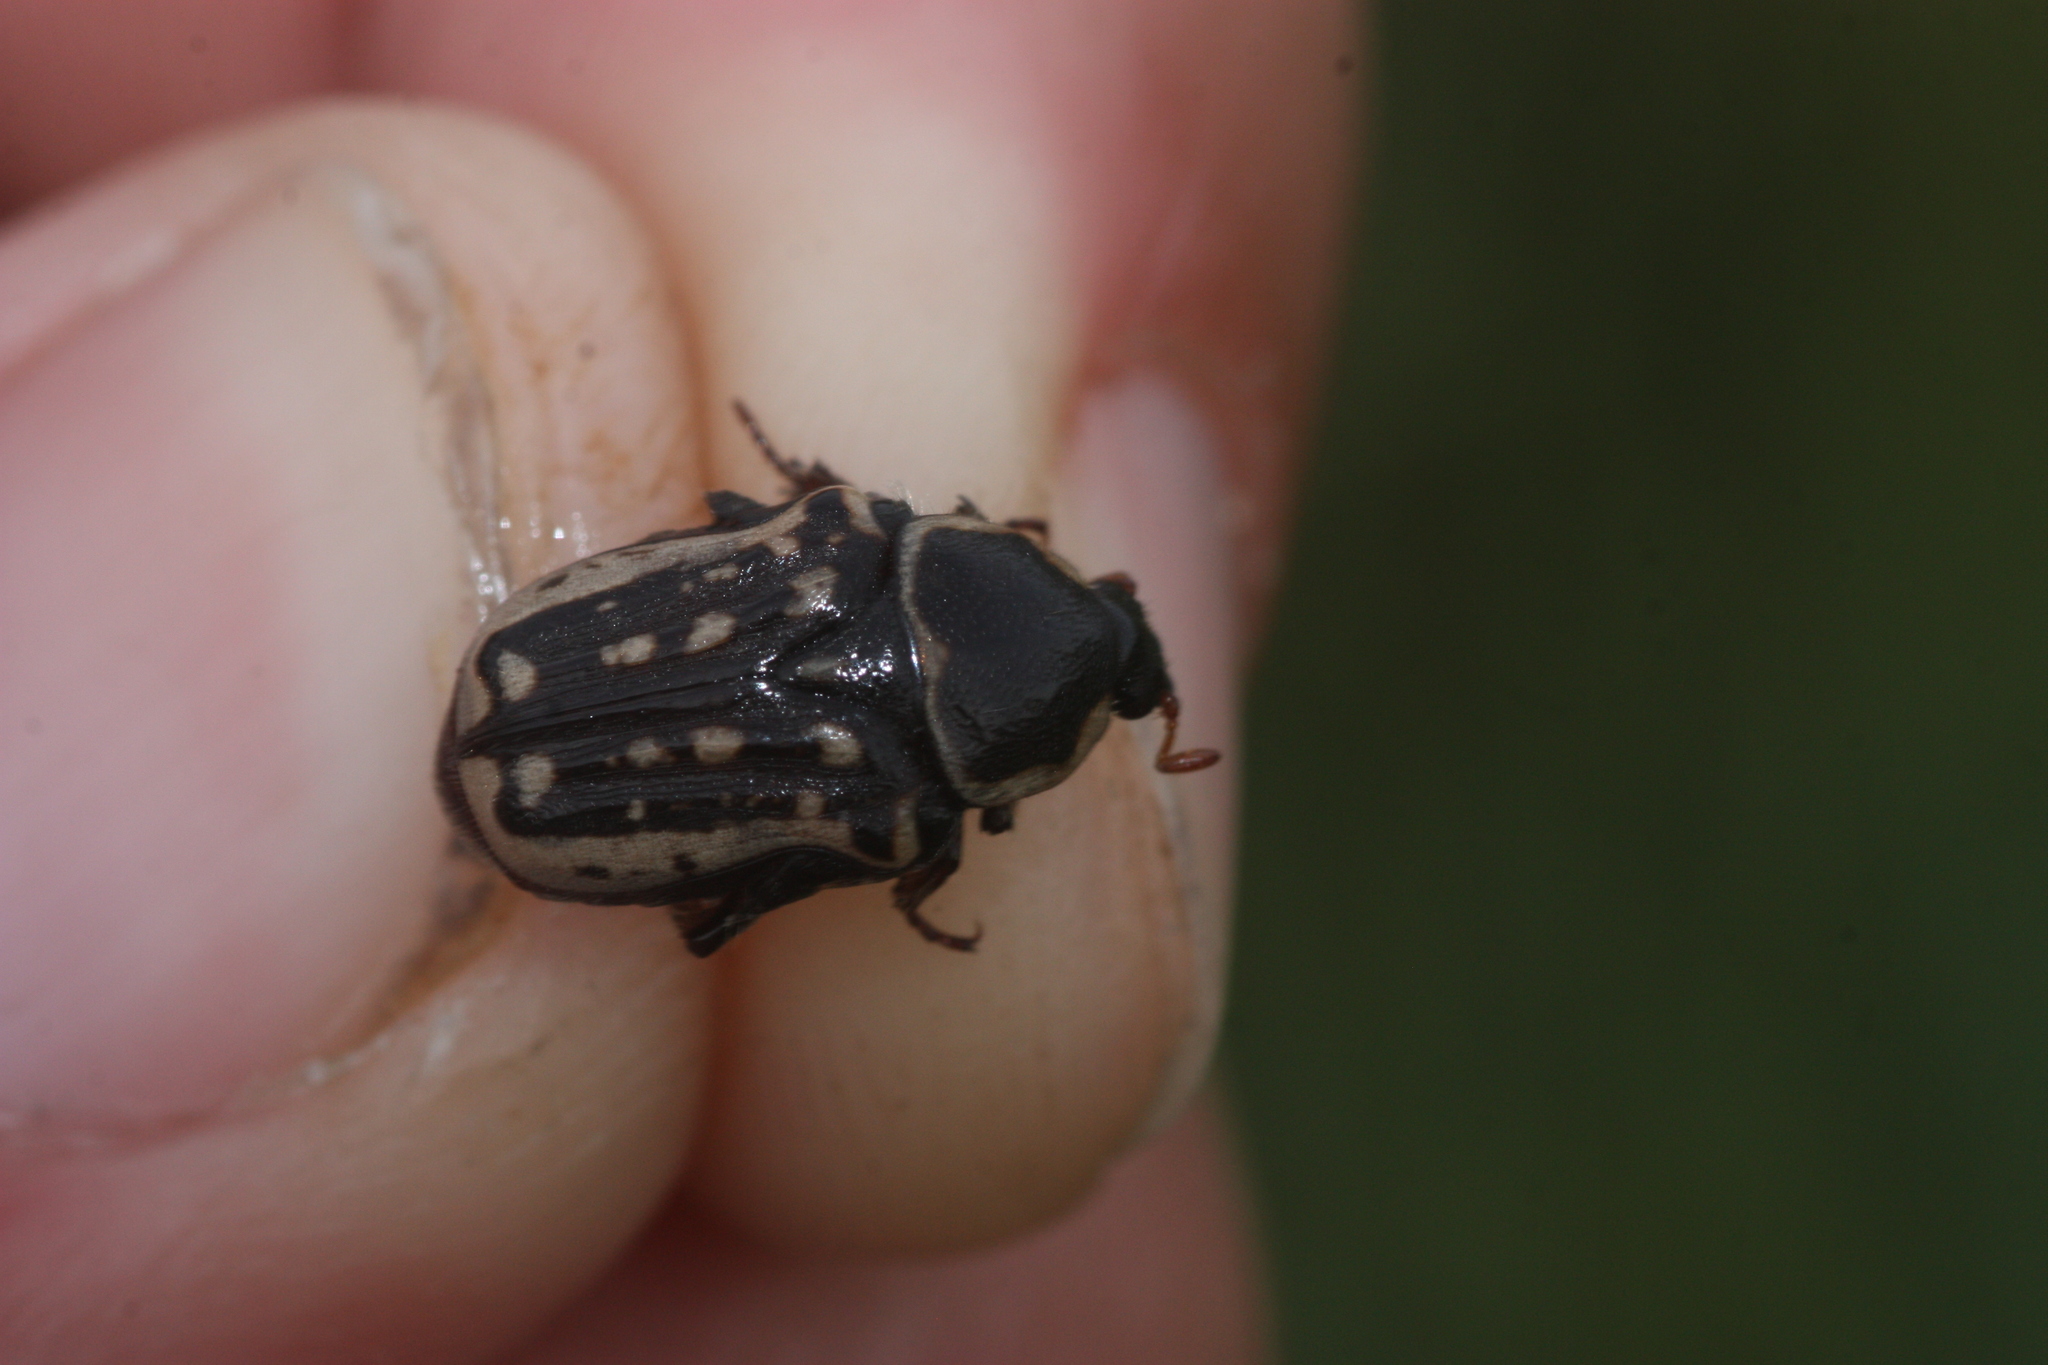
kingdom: Animalia
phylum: Arthropoda
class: Insecta
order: Coleoptera
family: Scarabaeidae
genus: Euphoria
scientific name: Euphoria kernii
